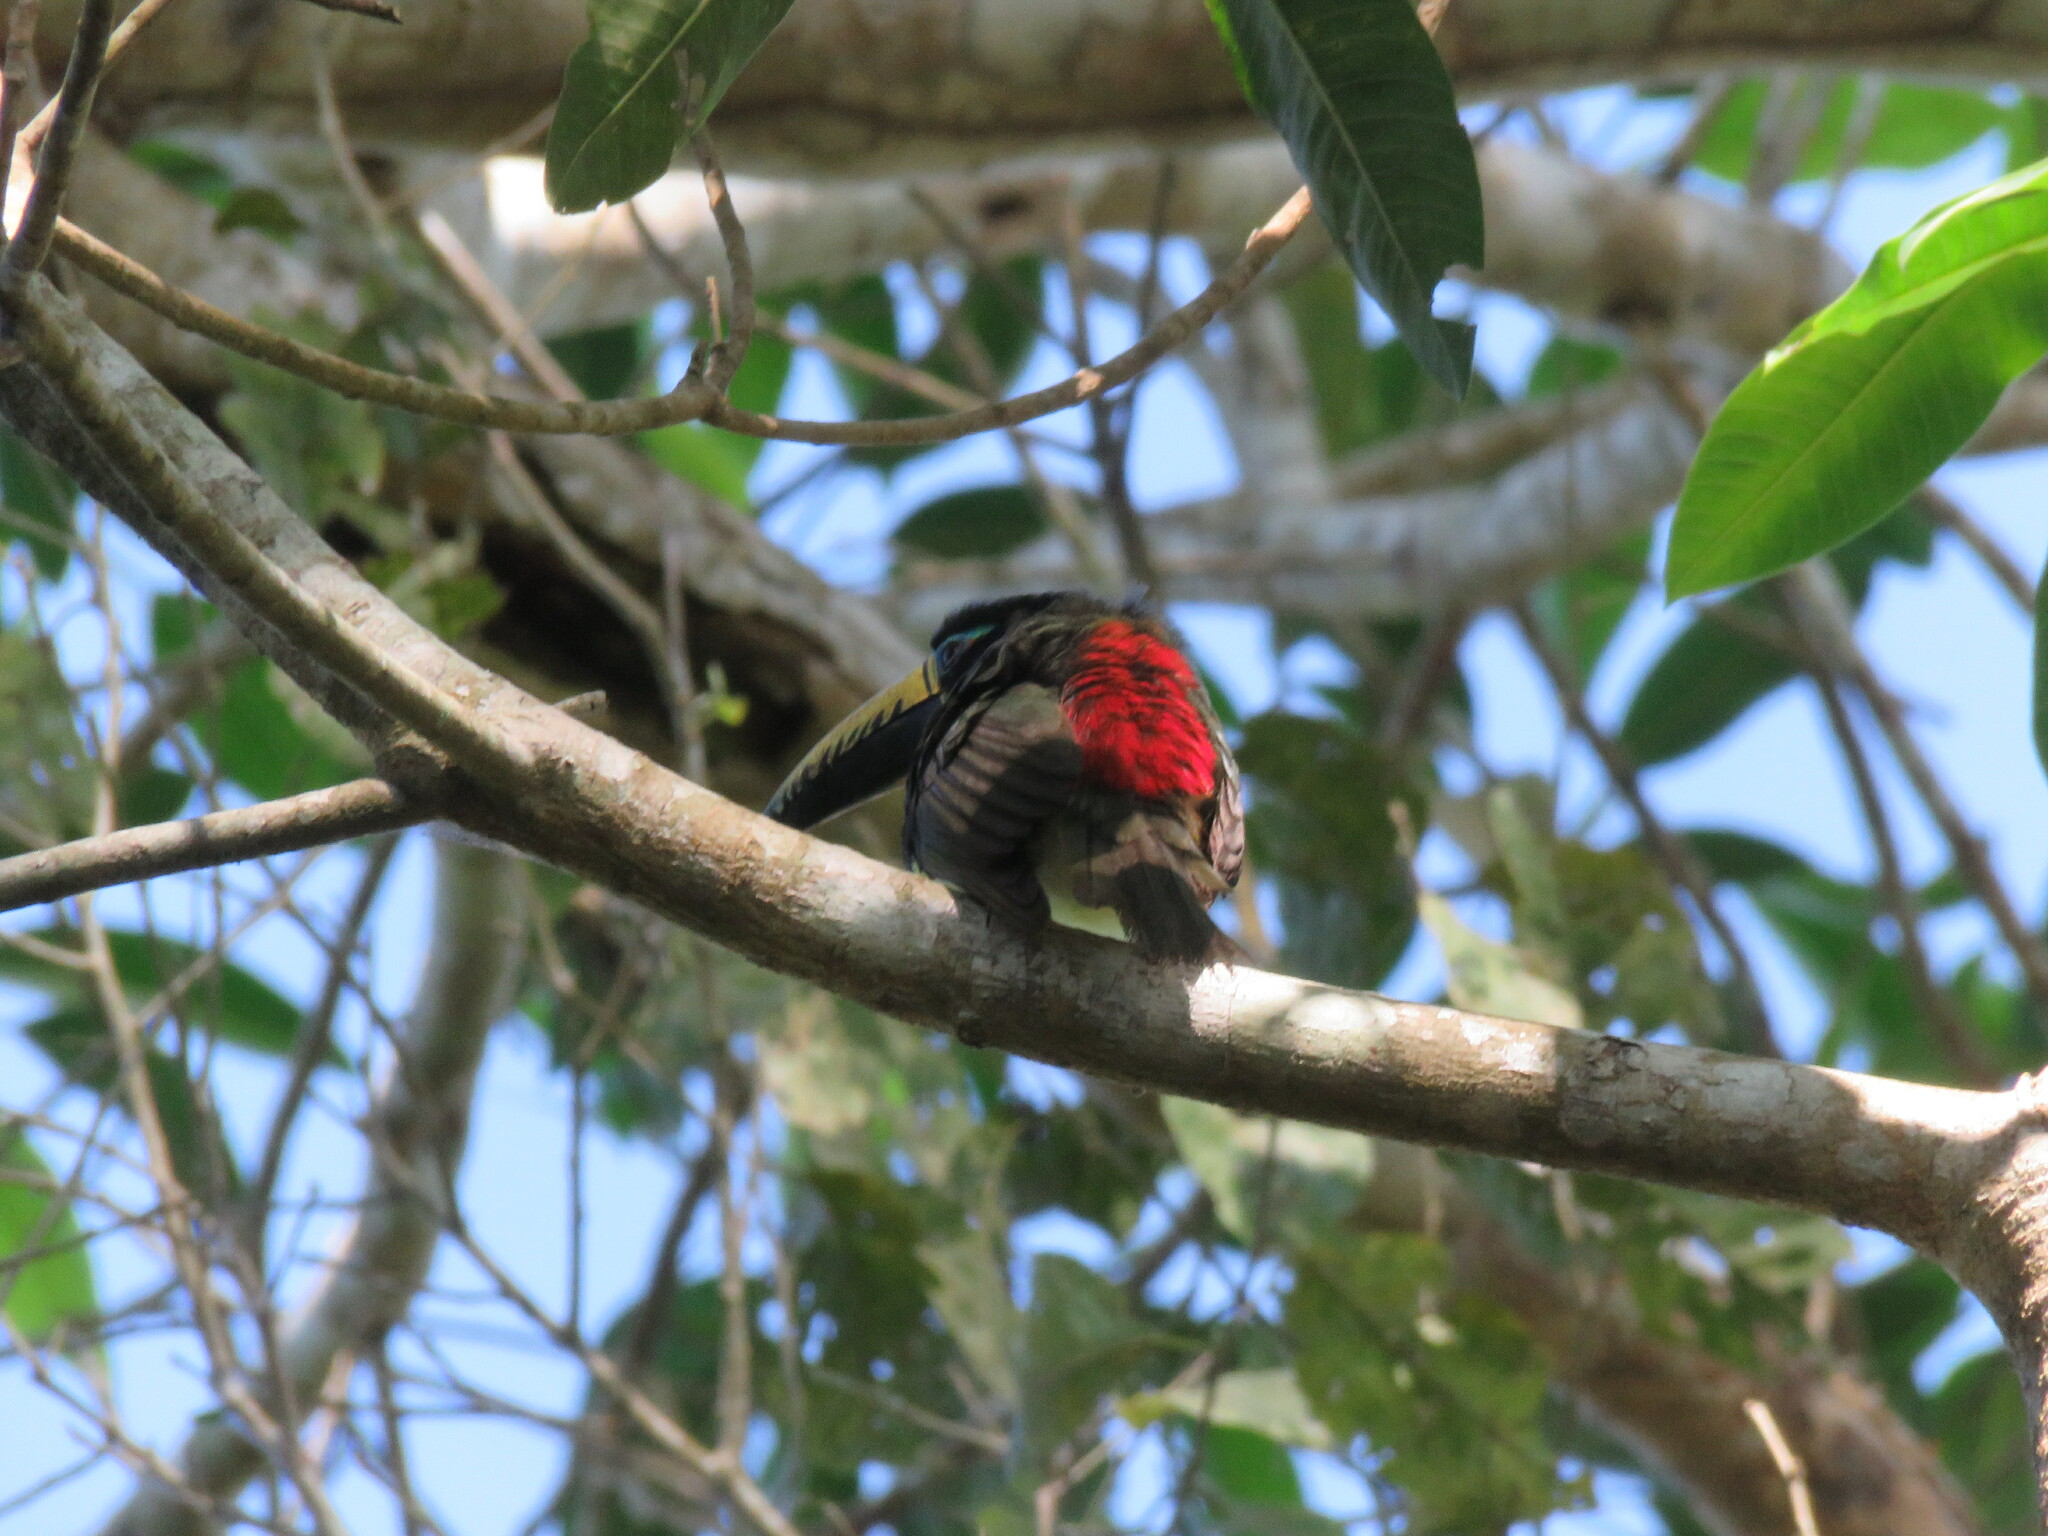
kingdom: Animalia
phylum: Chordata
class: Aves
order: Piciformes
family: Ramphastidae
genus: Pteroglossus
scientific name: Pteroglossus inscriptus
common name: Lettered aracari
